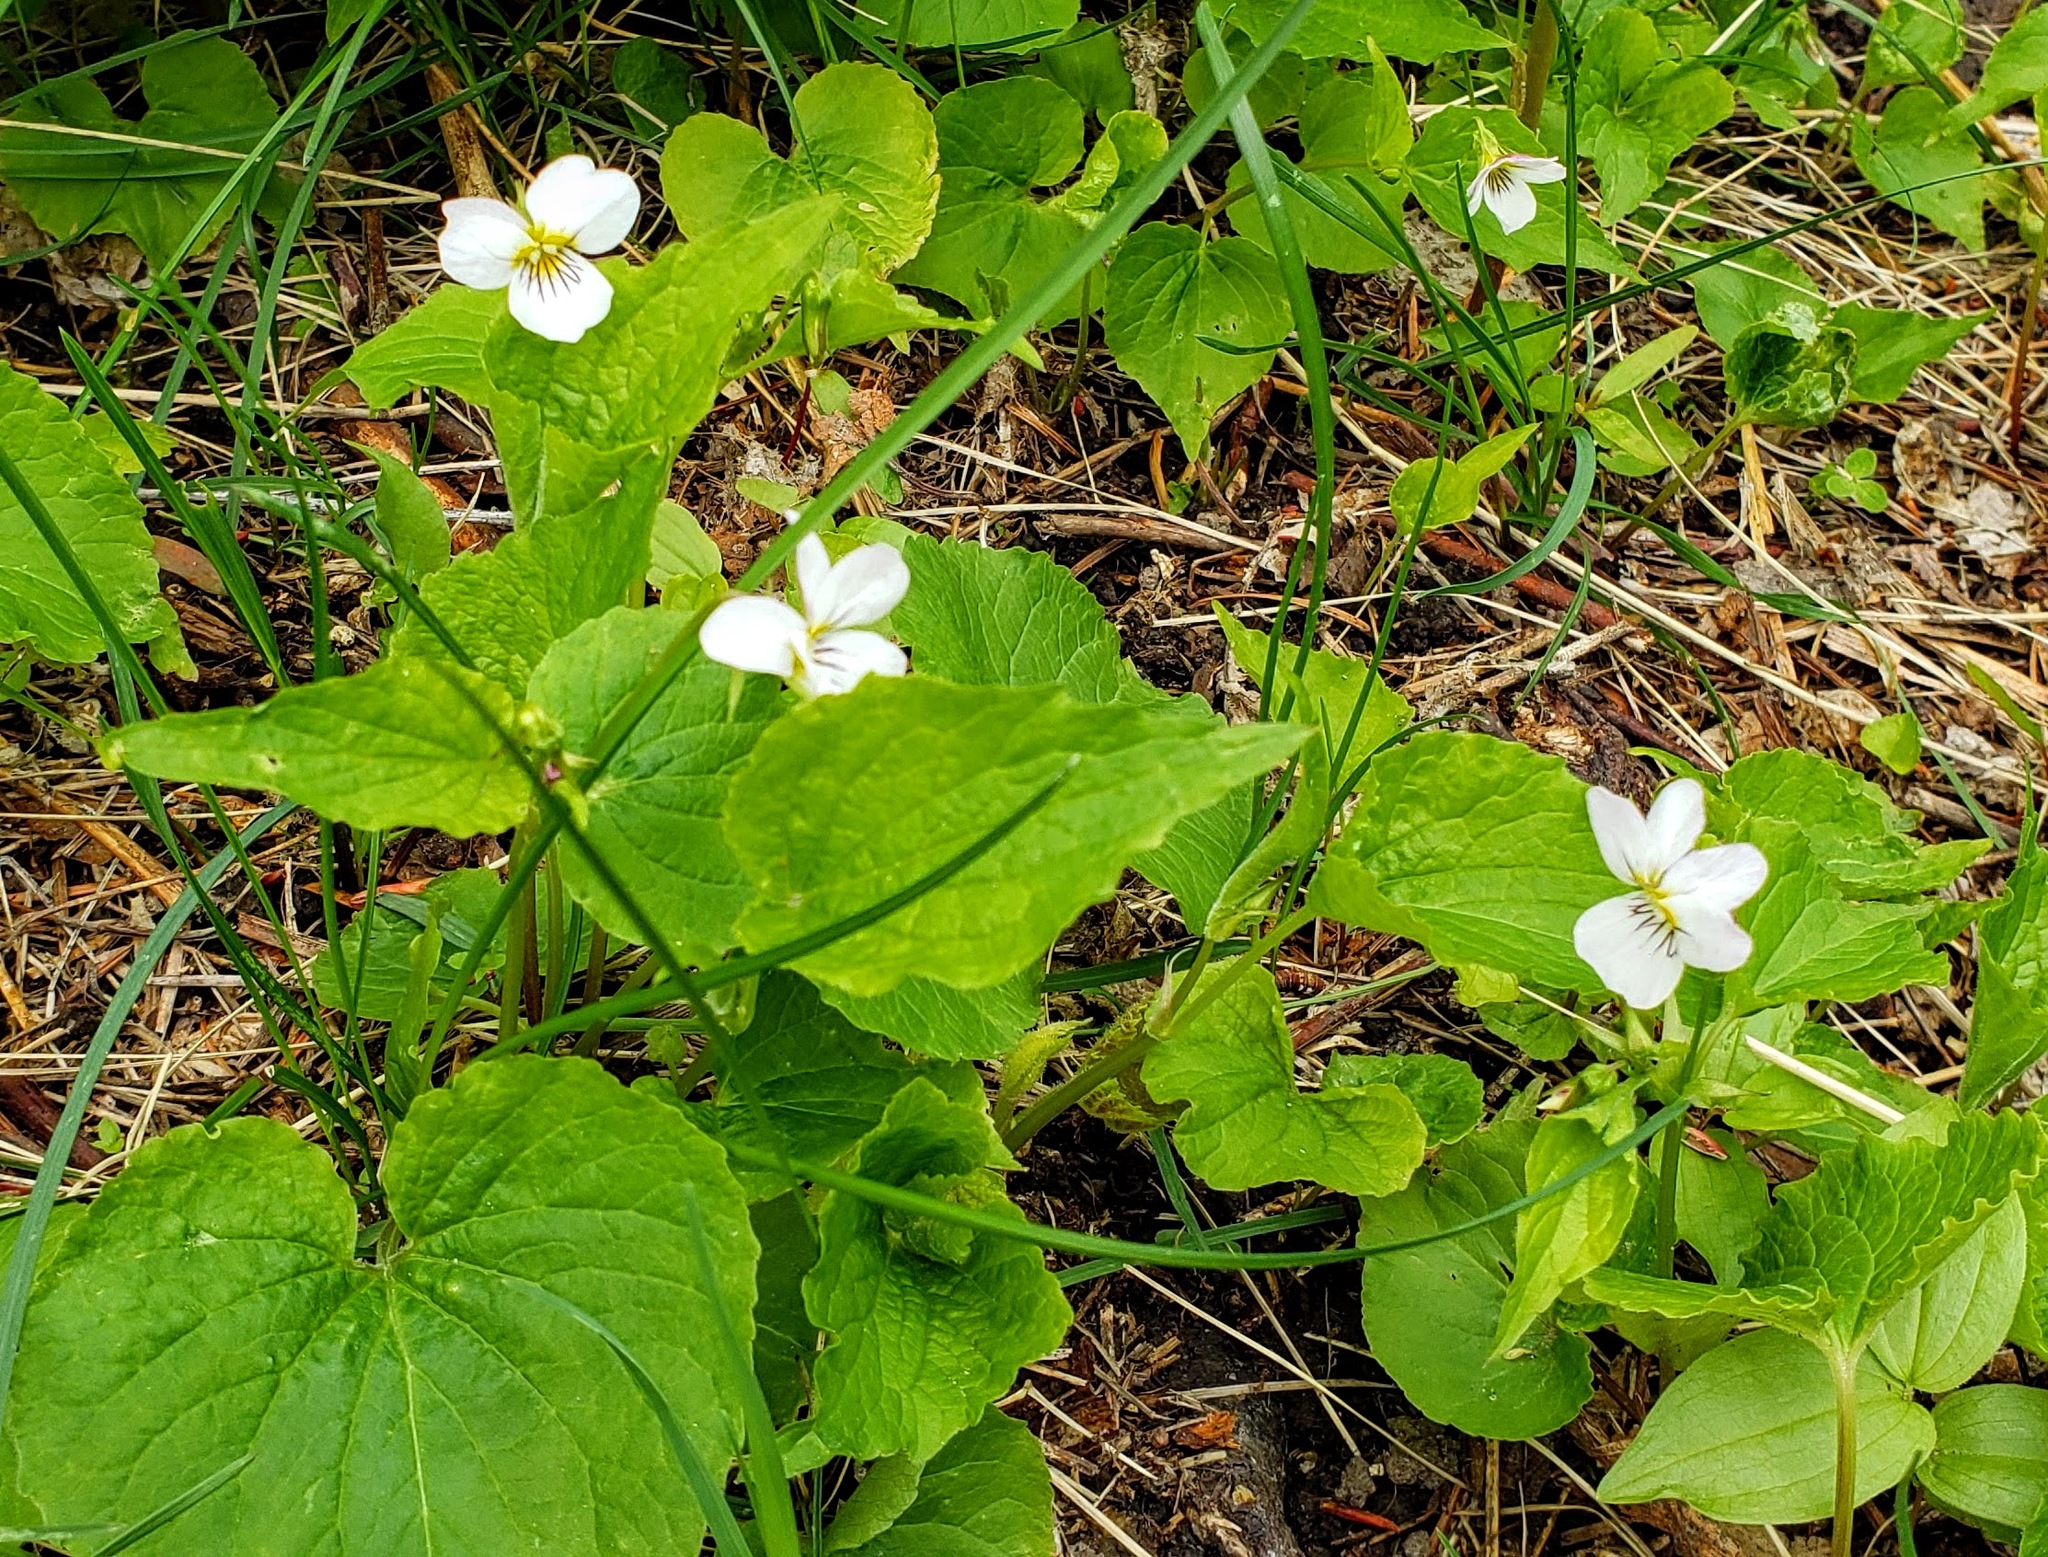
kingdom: Plantae
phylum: Tracheophyta
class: Magnoliopsida
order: Malpighiales
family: Violaceae
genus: Viola
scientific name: Viola canadensis
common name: Canada violet
